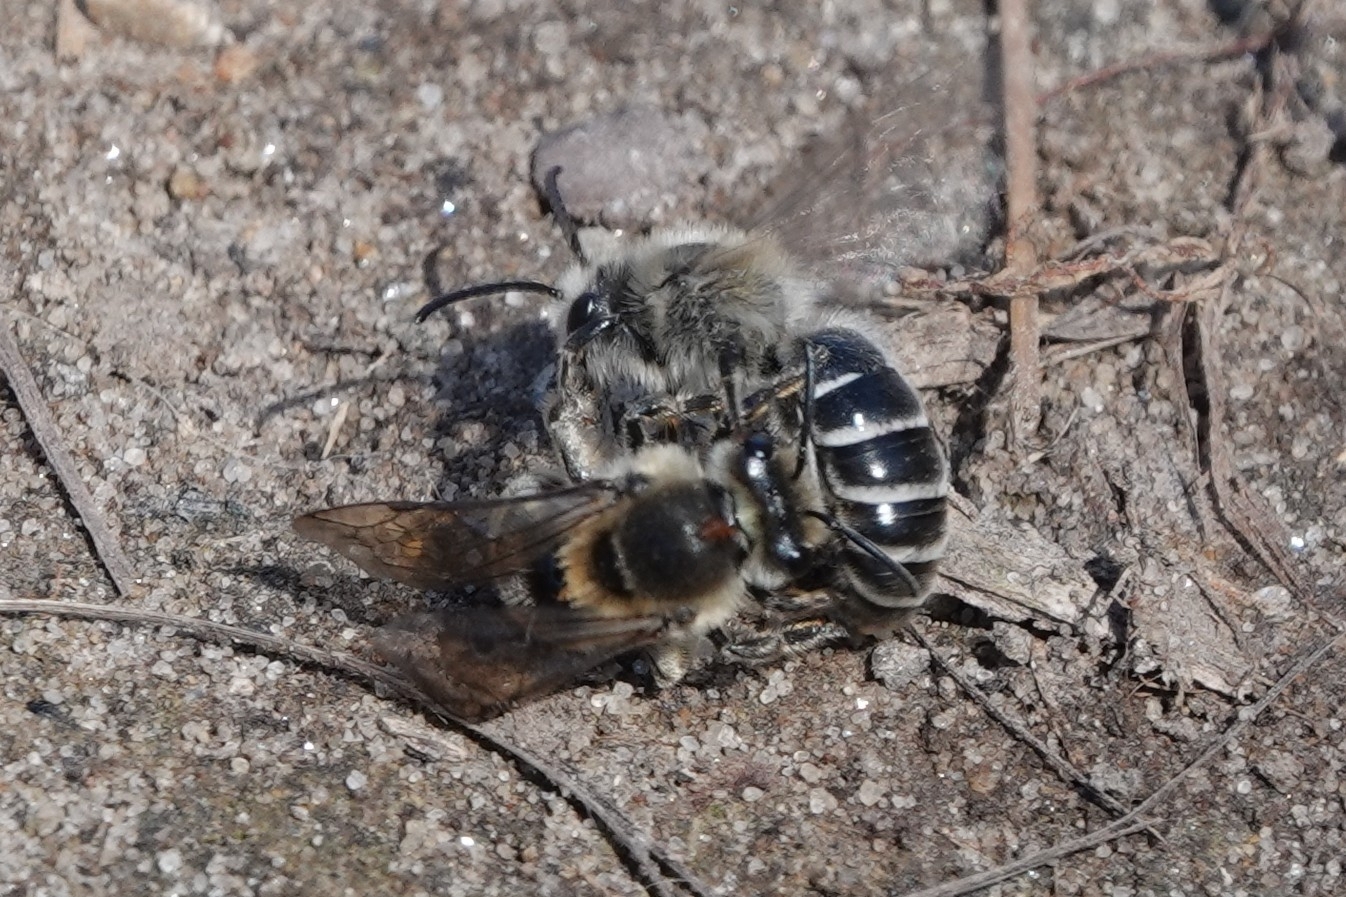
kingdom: Animalia
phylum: Arthropoda
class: Insecta
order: Hymenoptera
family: Colletidae
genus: Colletes
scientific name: Colletes inaequalis
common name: Unequal cellophane bee
